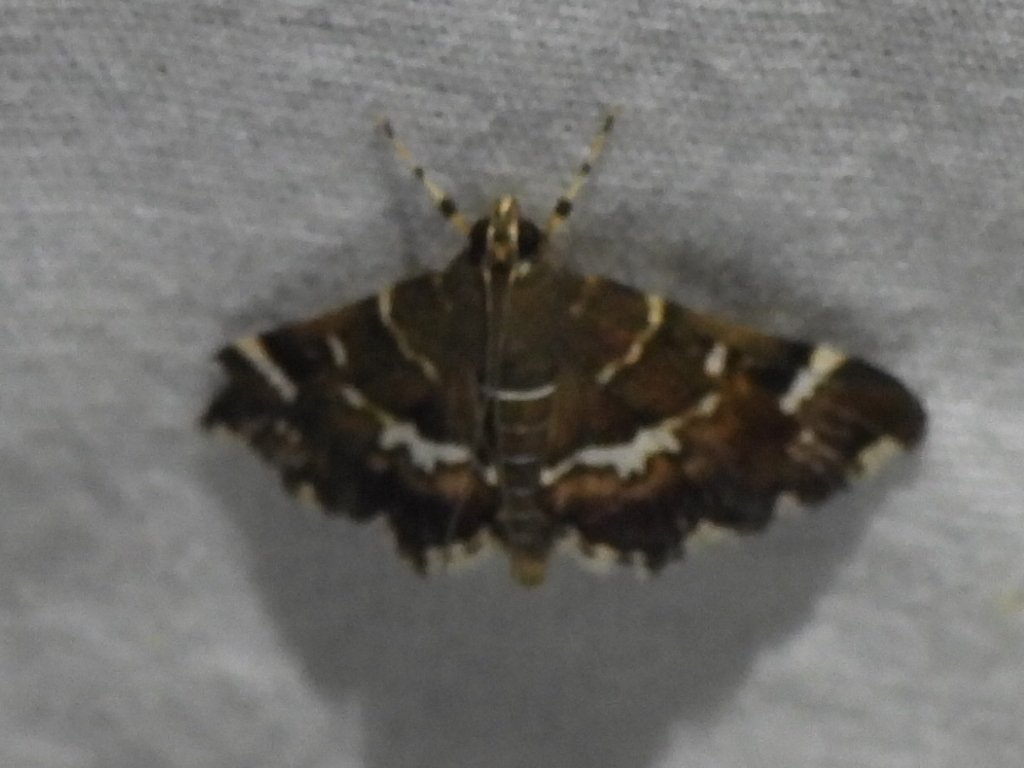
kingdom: Animalia
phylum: Arthropoda
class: Insecta
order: Lepidoptera
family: Crambidae
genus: Hymenia
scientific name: Hymenia perspectalis
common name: Spotted beet webworm
